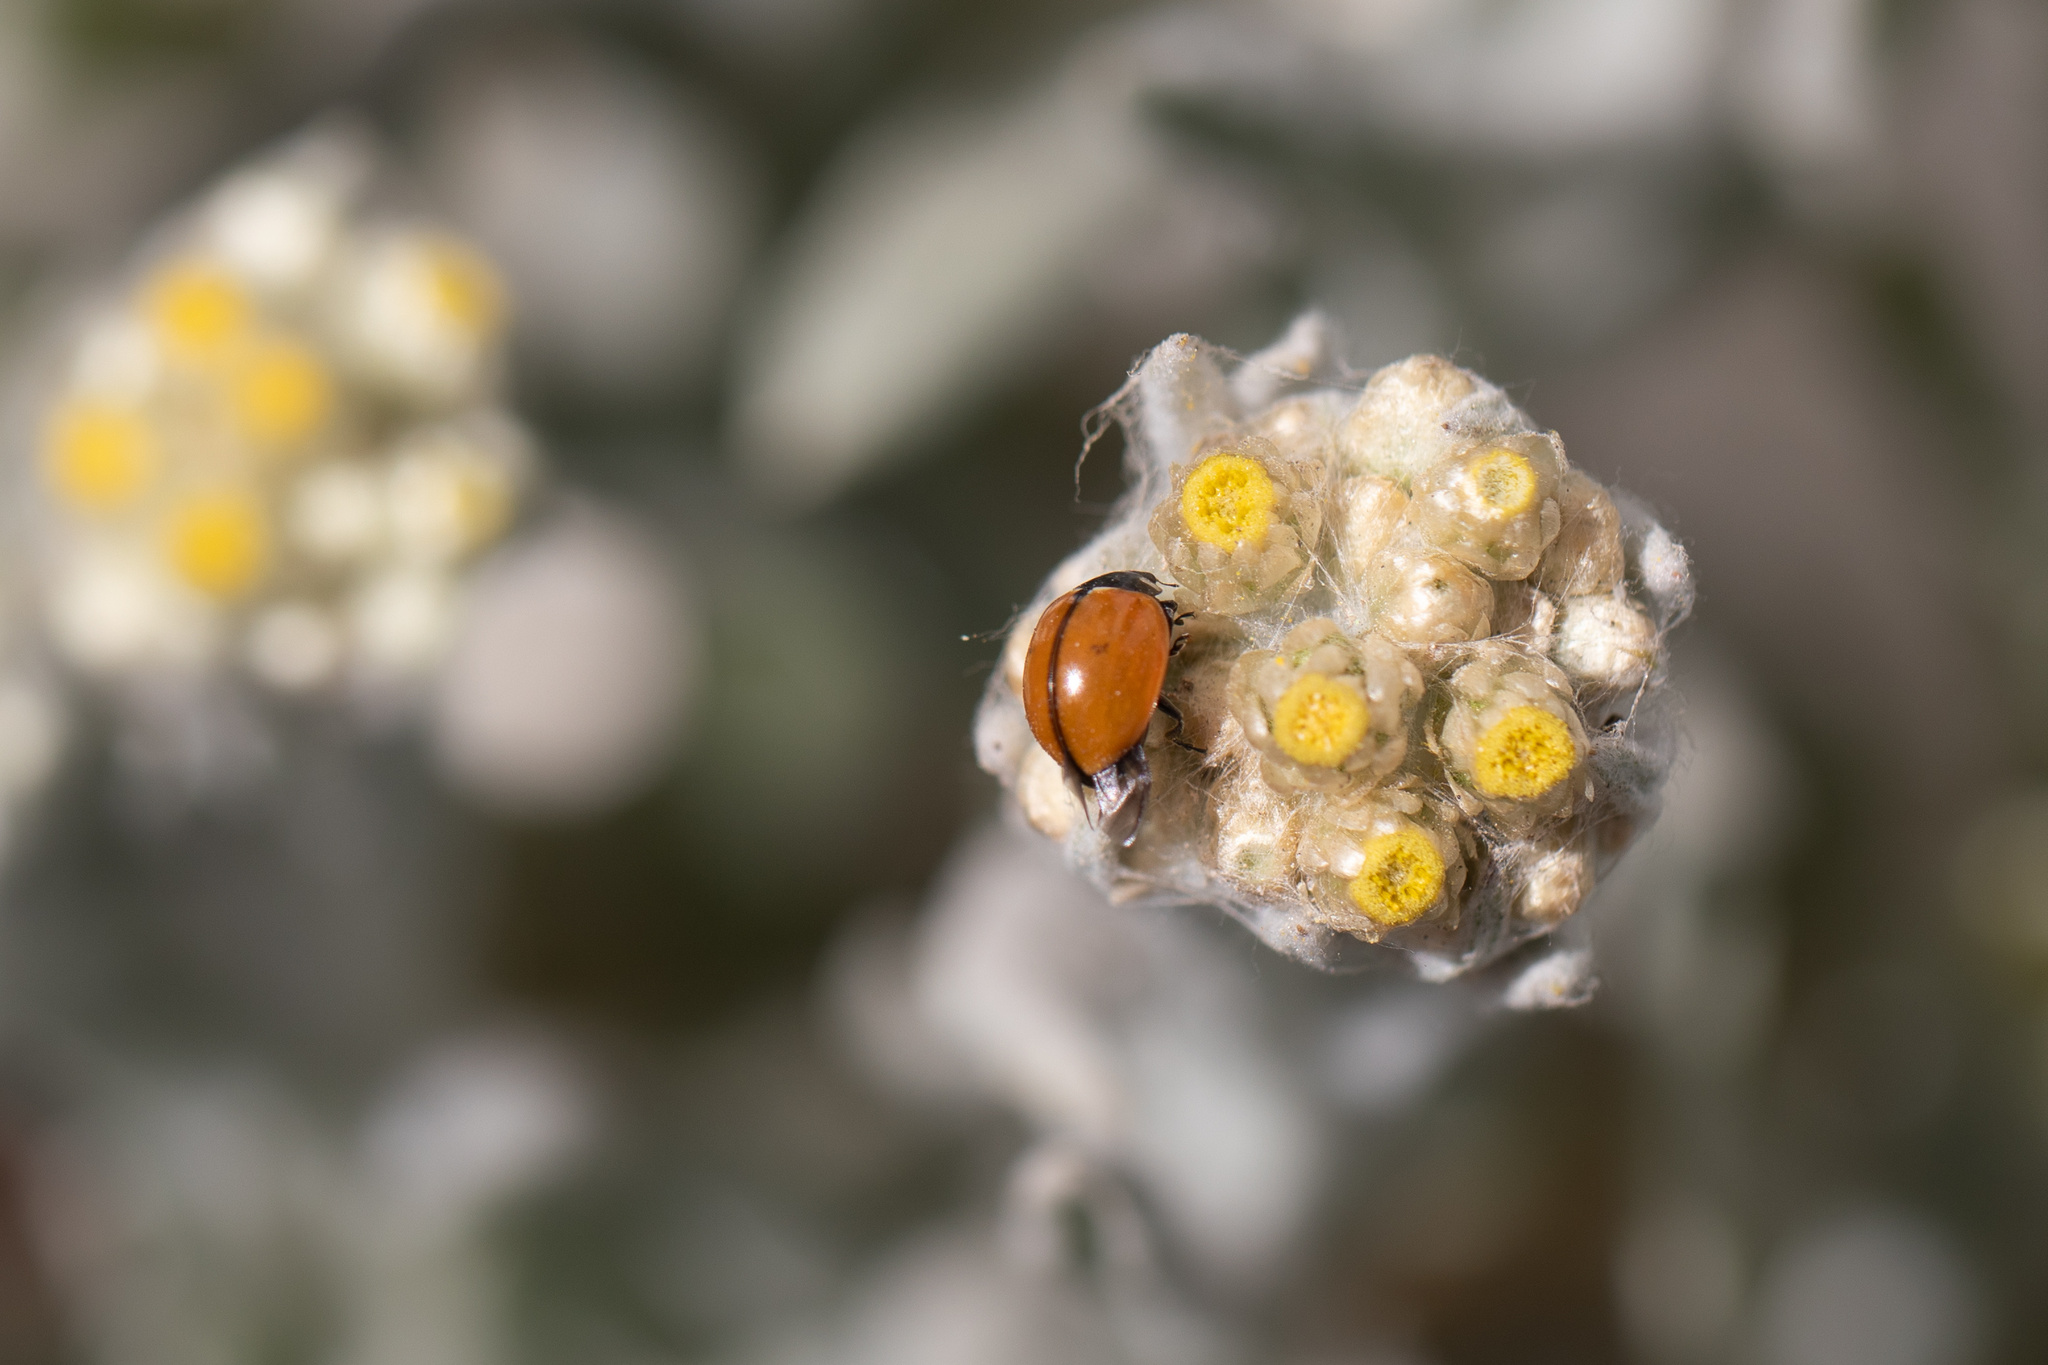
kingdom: Animalia
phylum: Arthropoda
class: Insecta
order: Coleoptera
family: Coccinellidae
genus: Coccinella
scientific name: Coccinella californica
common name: Lady beetle
